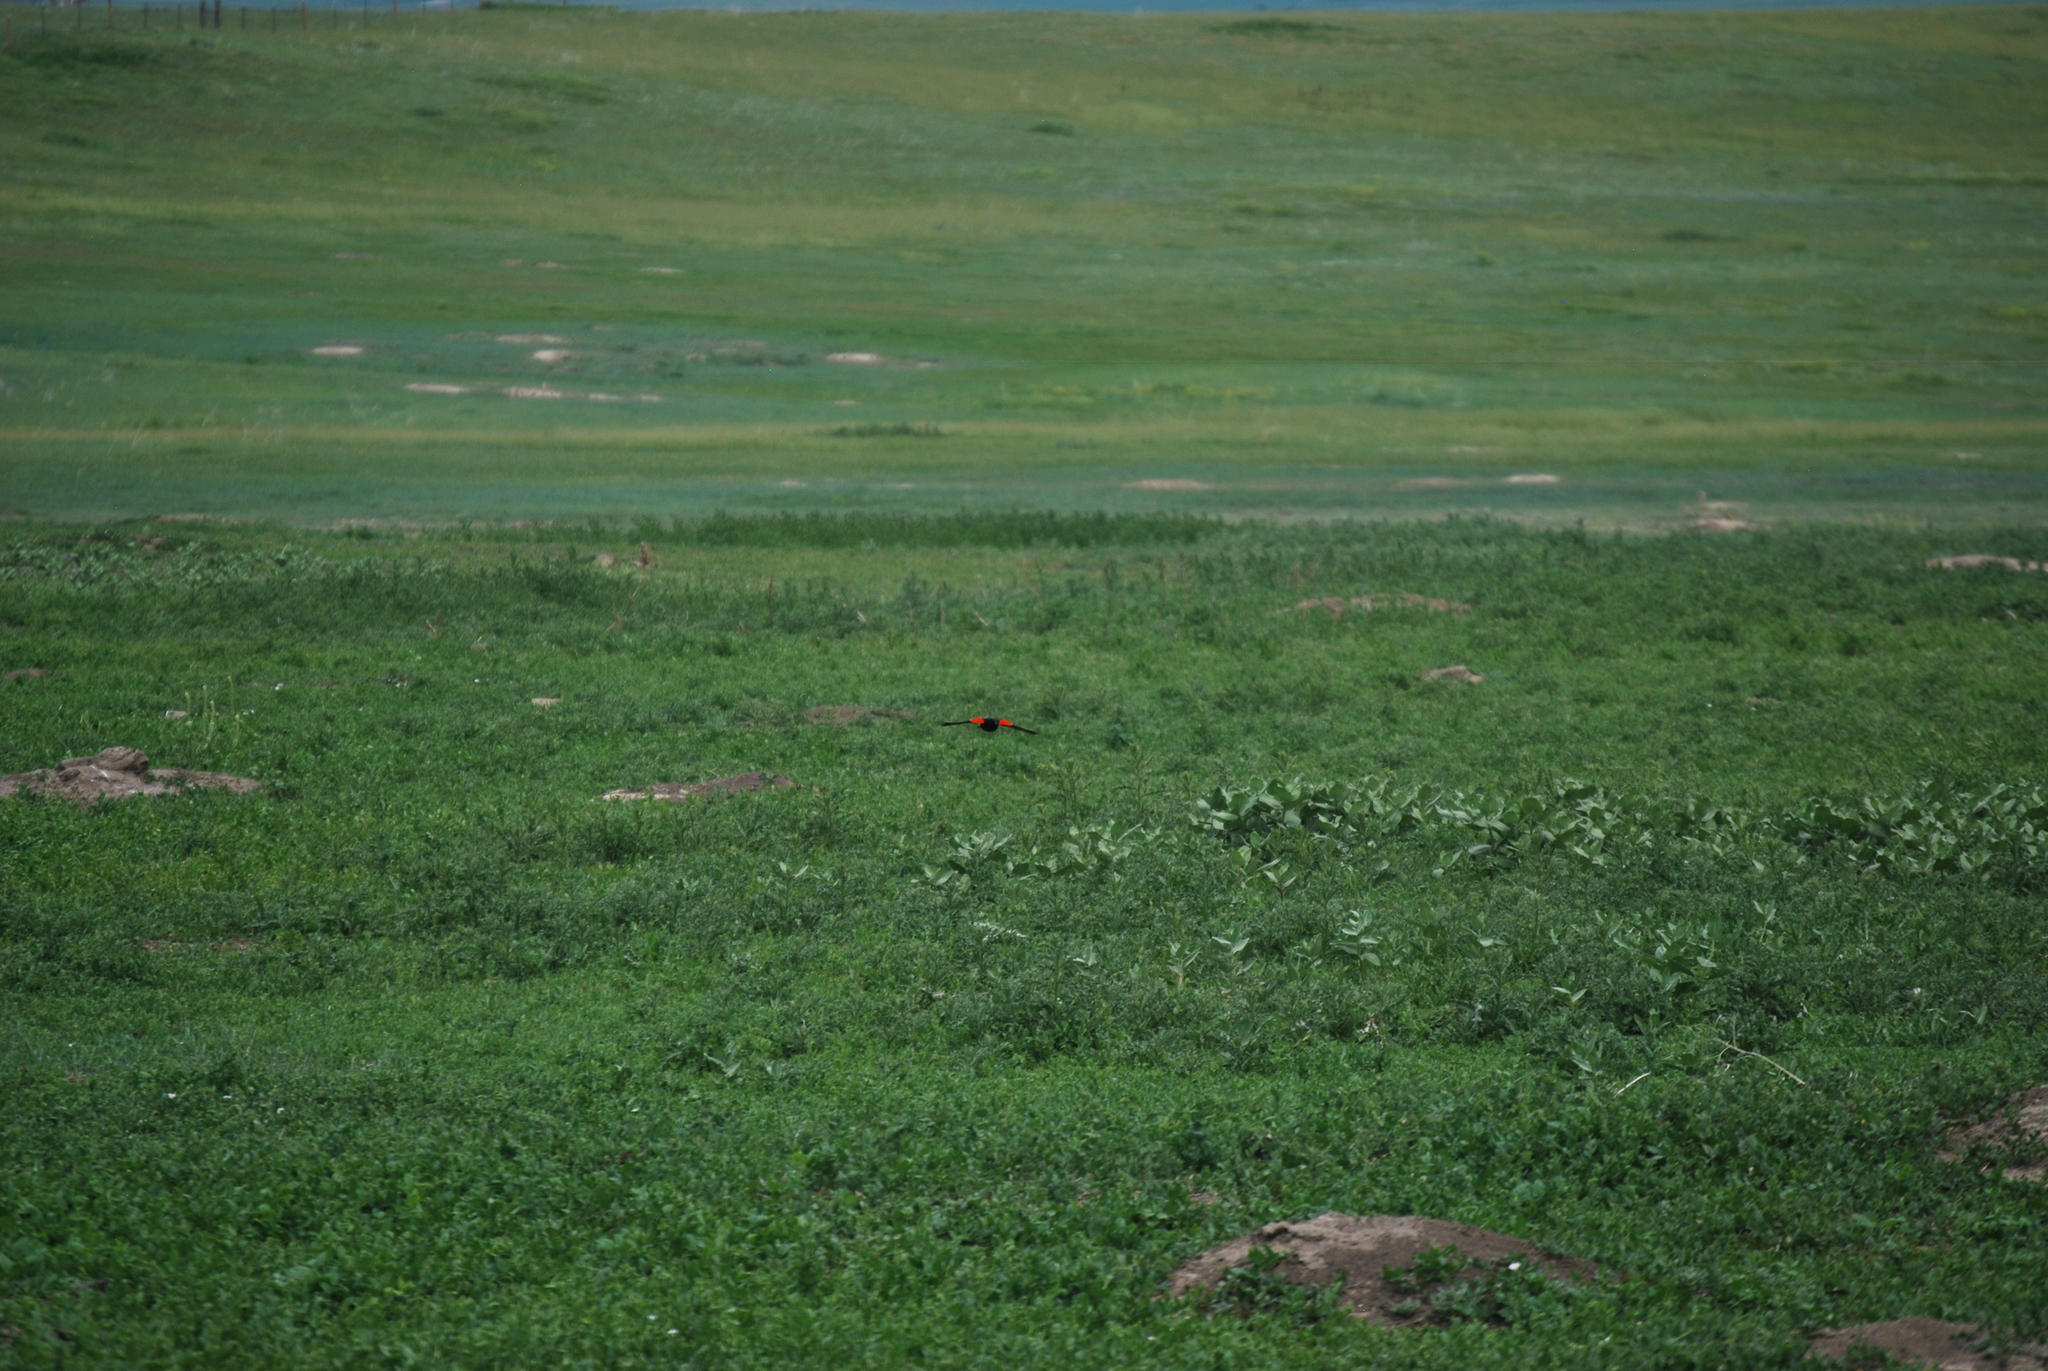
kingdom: Animalia
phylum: Chordata
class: Aves
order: Passeriformes
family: Icteridae
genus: Agelaius
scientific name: Agelaius phoeniceus
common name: Red-winged blackbird
